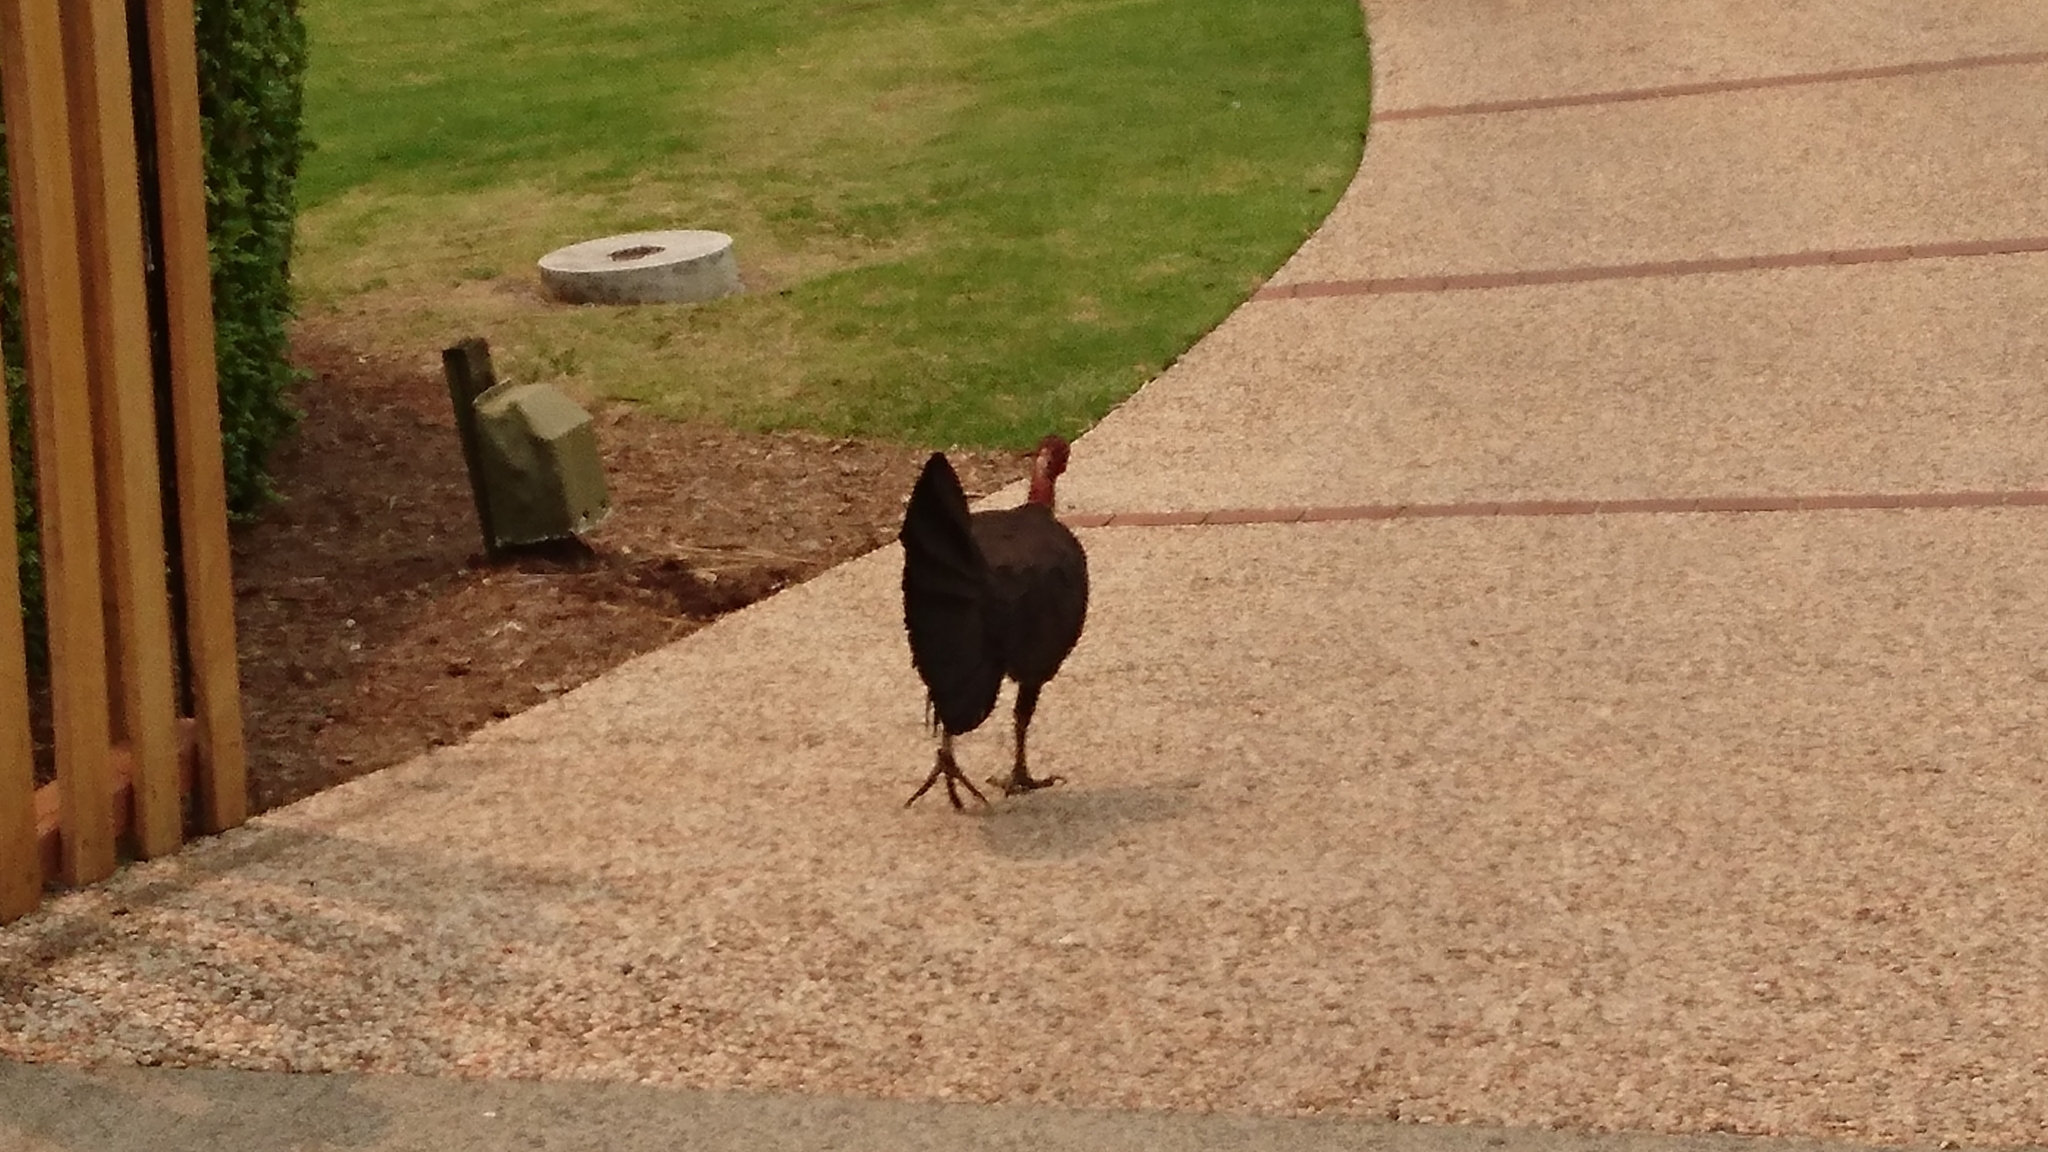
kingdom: Animalia
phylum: Chordata
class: Aves
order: Galliformes
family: Megapodiidae
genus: Alectura
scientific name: Alectura lathami
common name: Australian brushturkey
